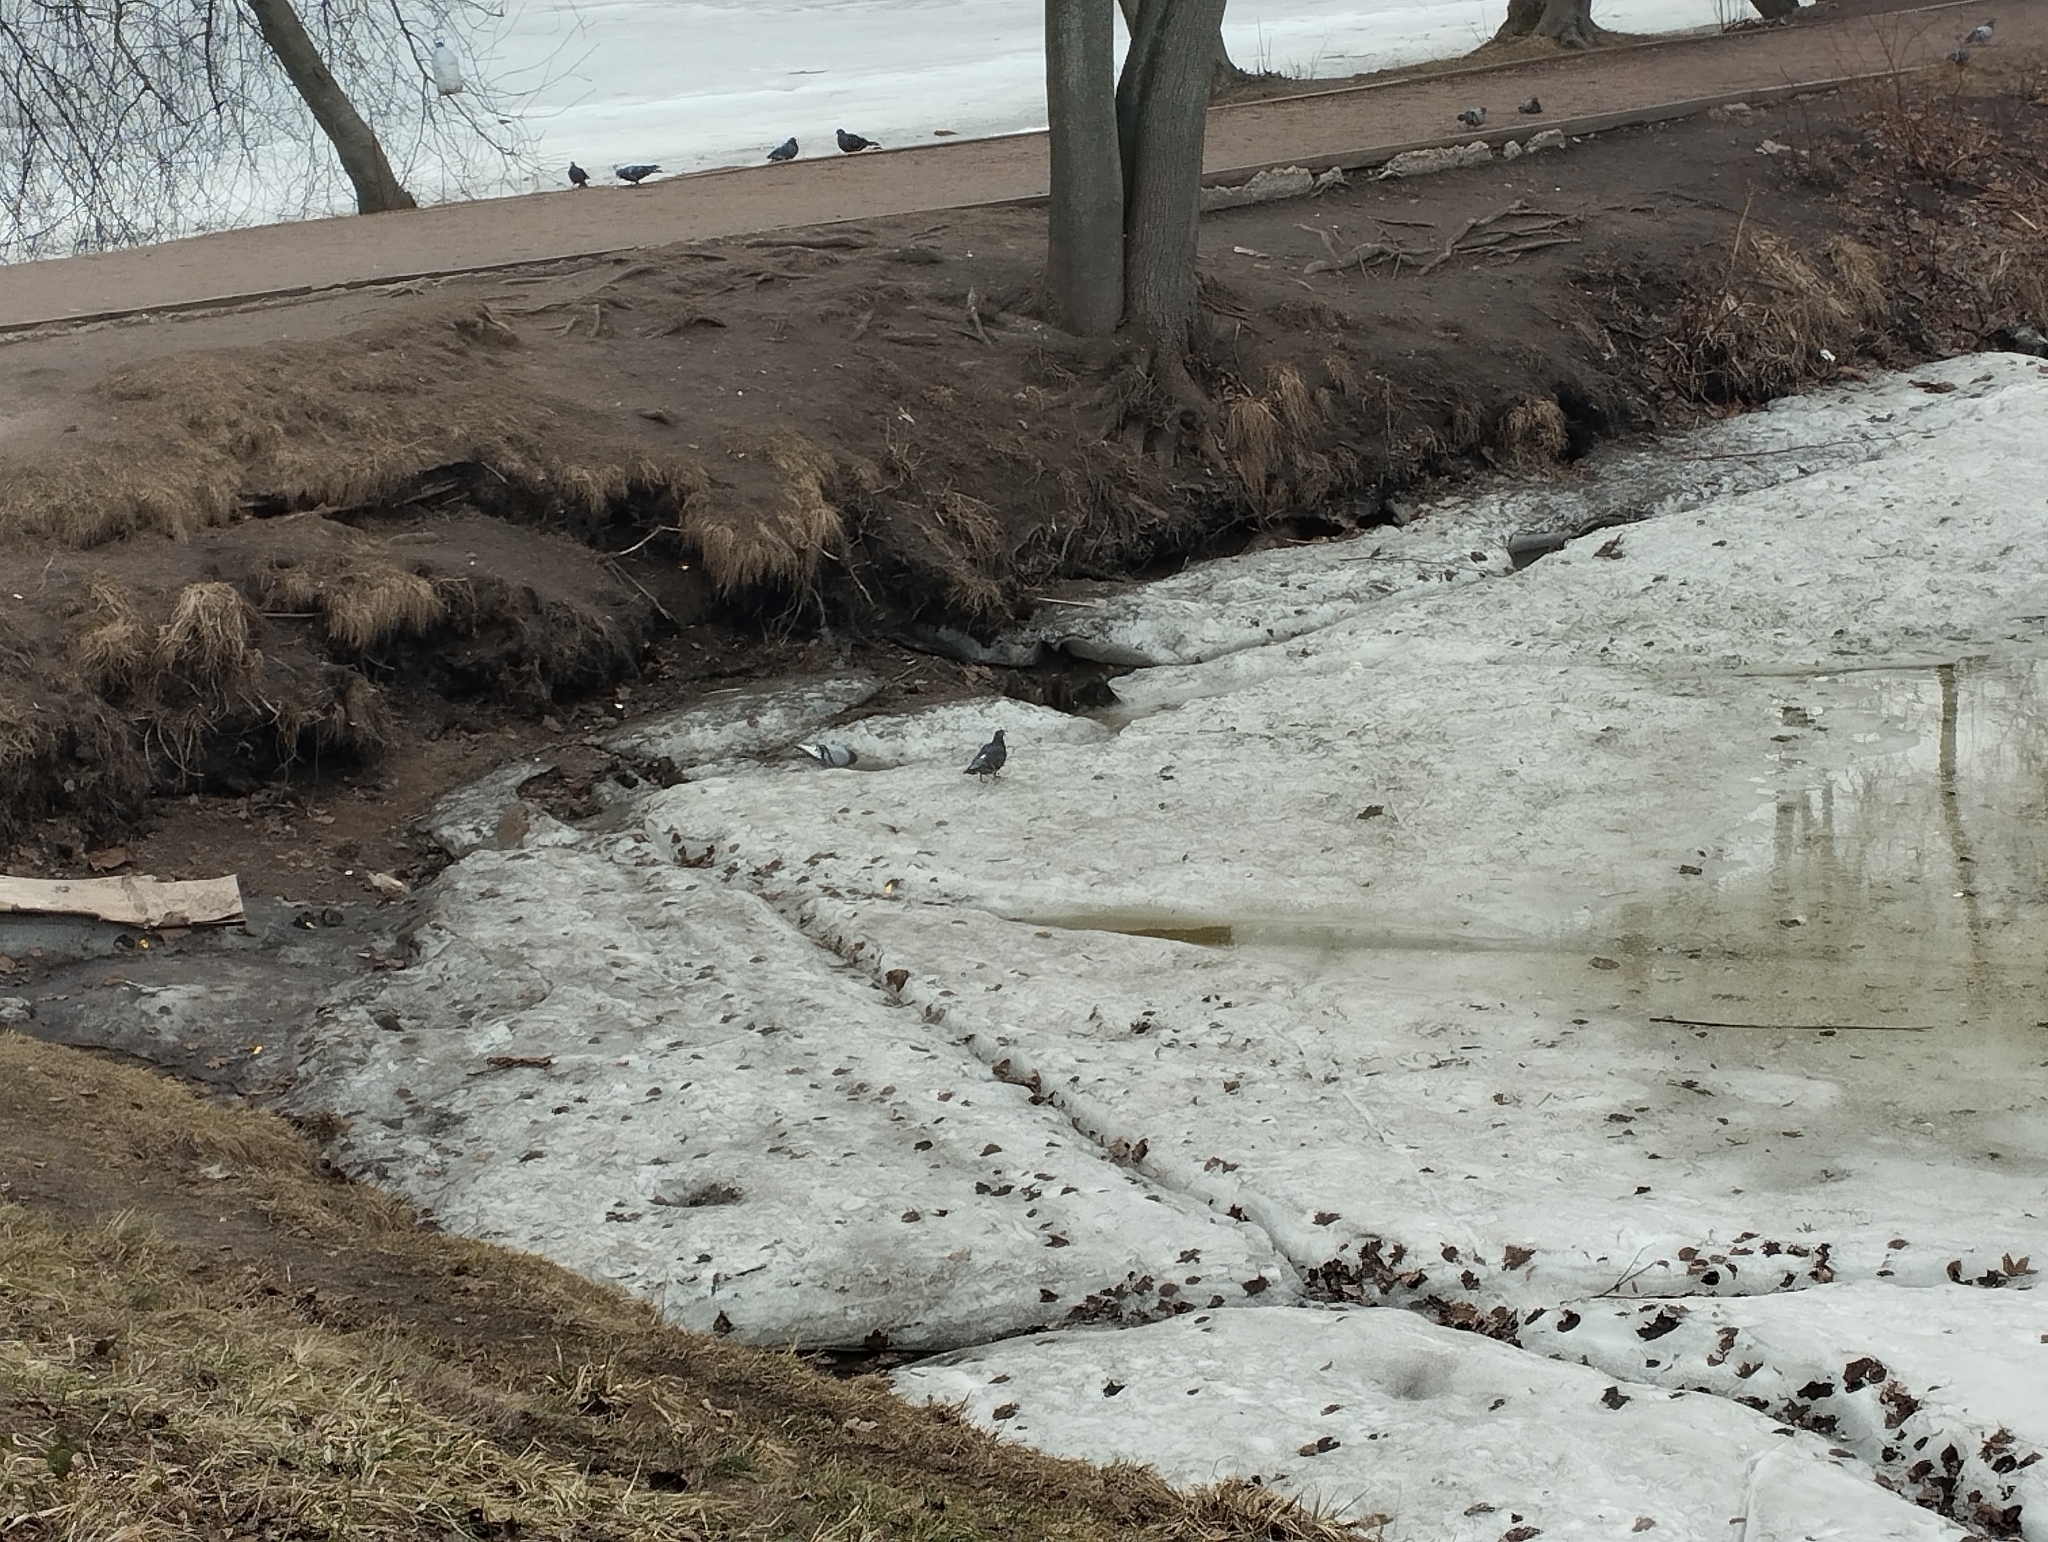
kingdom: Animalia
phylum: Chordata
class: Aves
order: Columbiformes
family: Columbidae
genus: Columba
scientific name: Columba livia
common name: Rock pigeon
